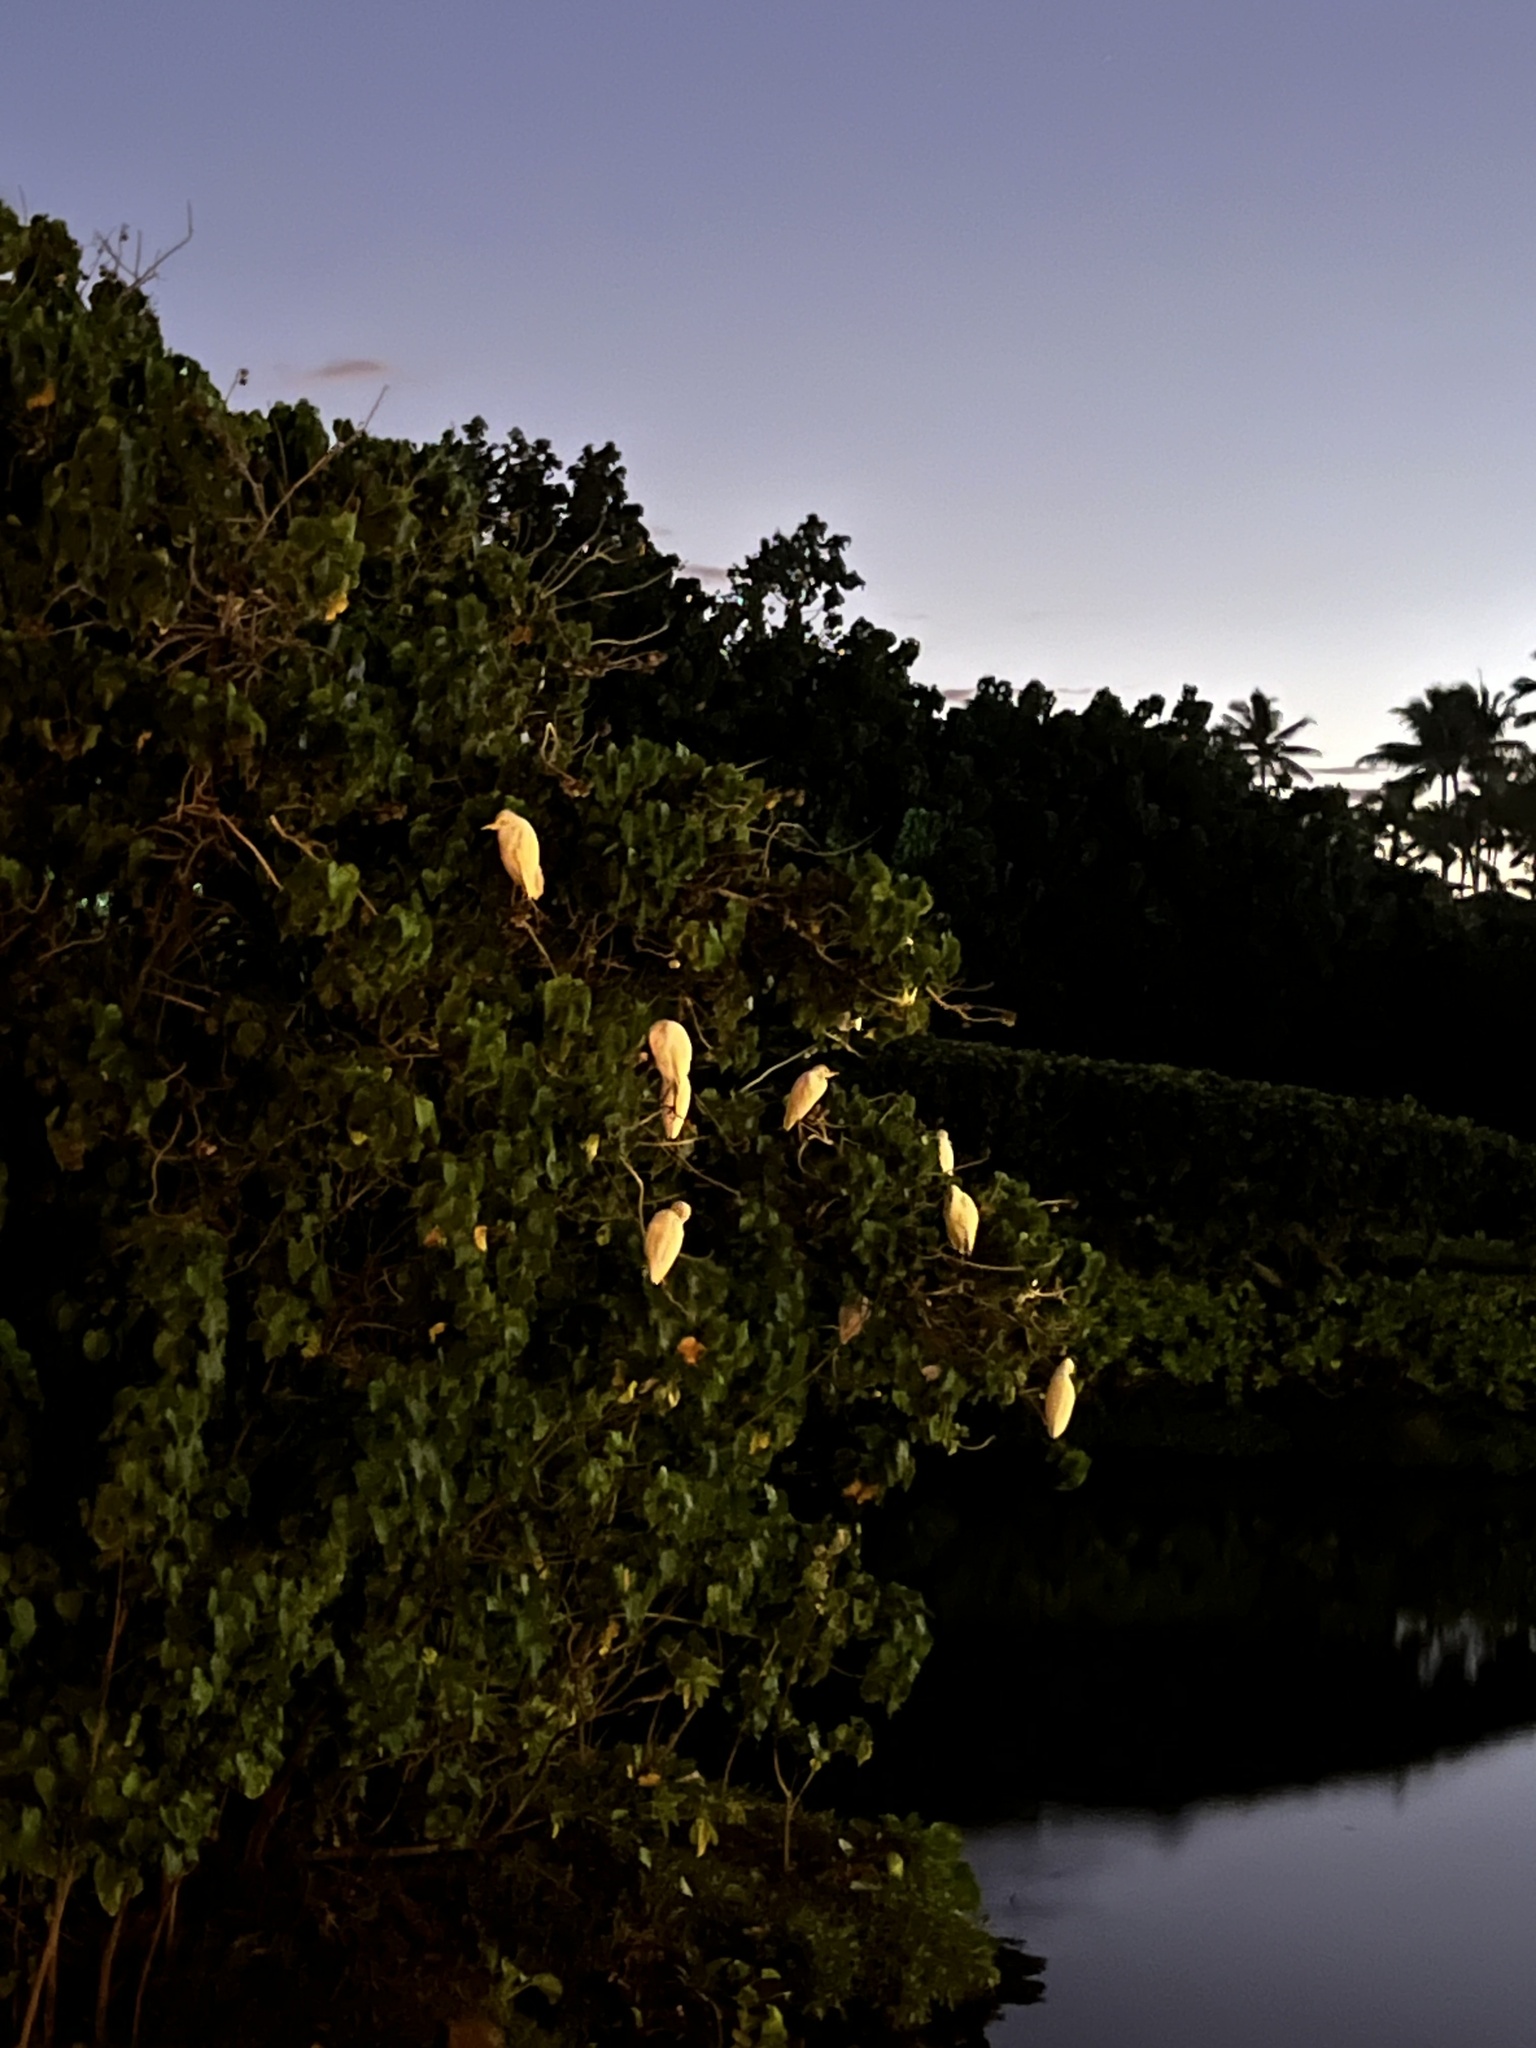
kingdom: Animalia
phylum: Chordata
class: Aves
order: Pelecaniformes
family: Ardeidae
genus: Bubulcus
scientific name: Bubulcus ibis
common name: Cattle egret
